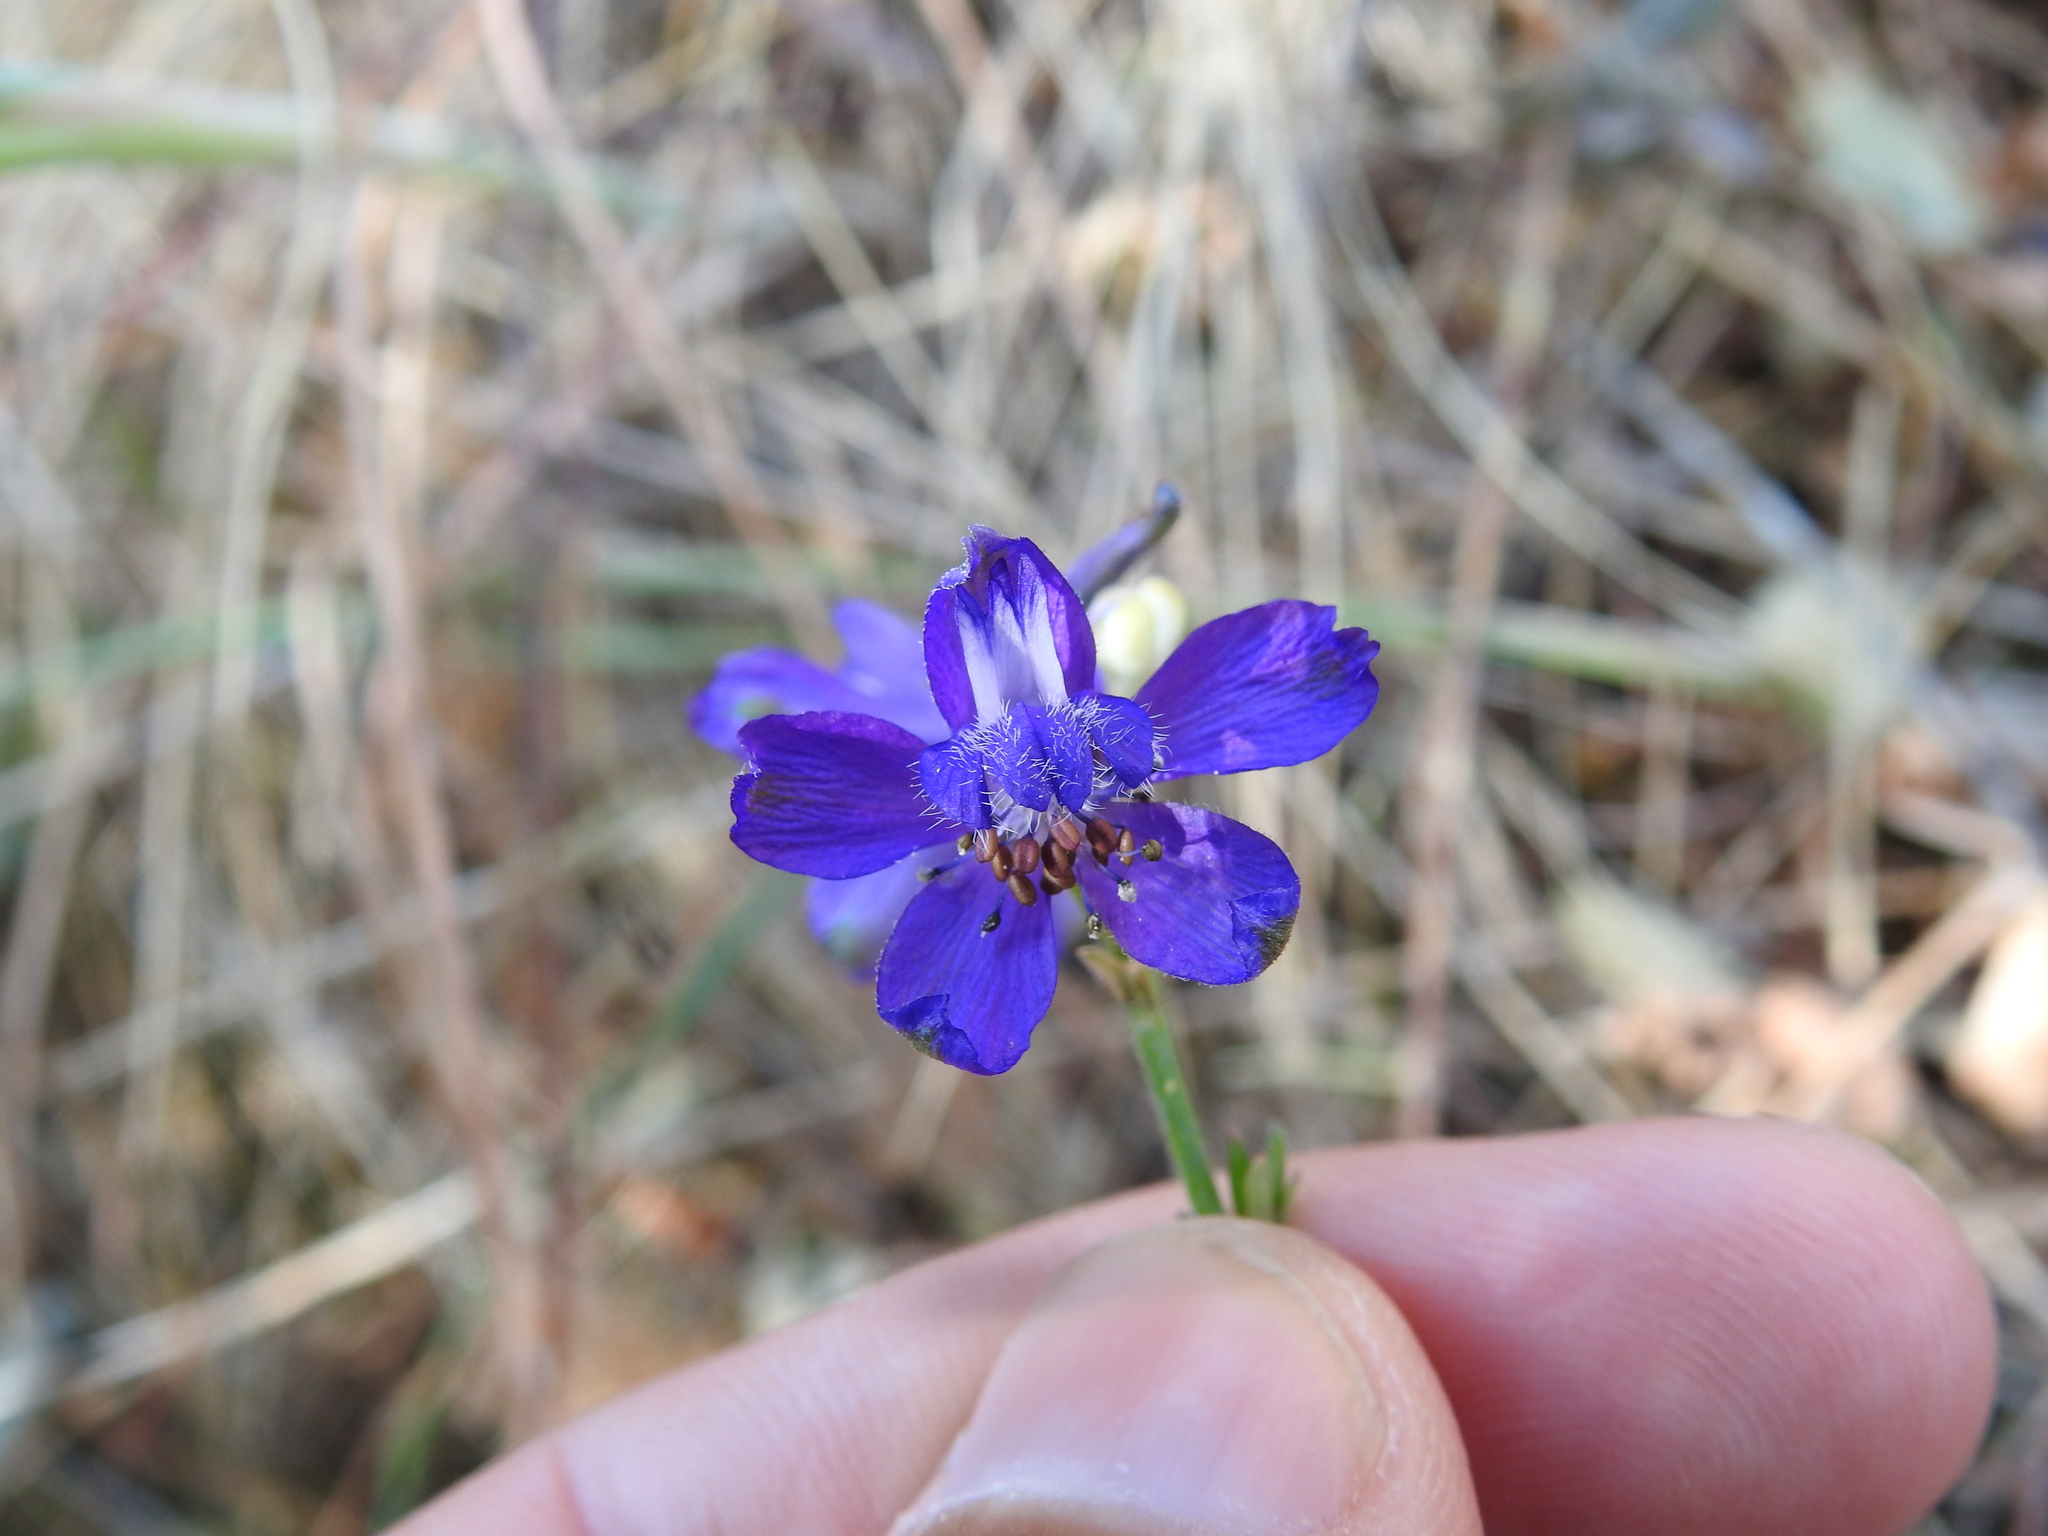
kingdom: Plantae
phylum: Tracheophyta
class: Magnoliopsida
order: Ranunculales
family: Ranunculaceae
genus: Delphinium
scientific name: Delphinium pentagynum
